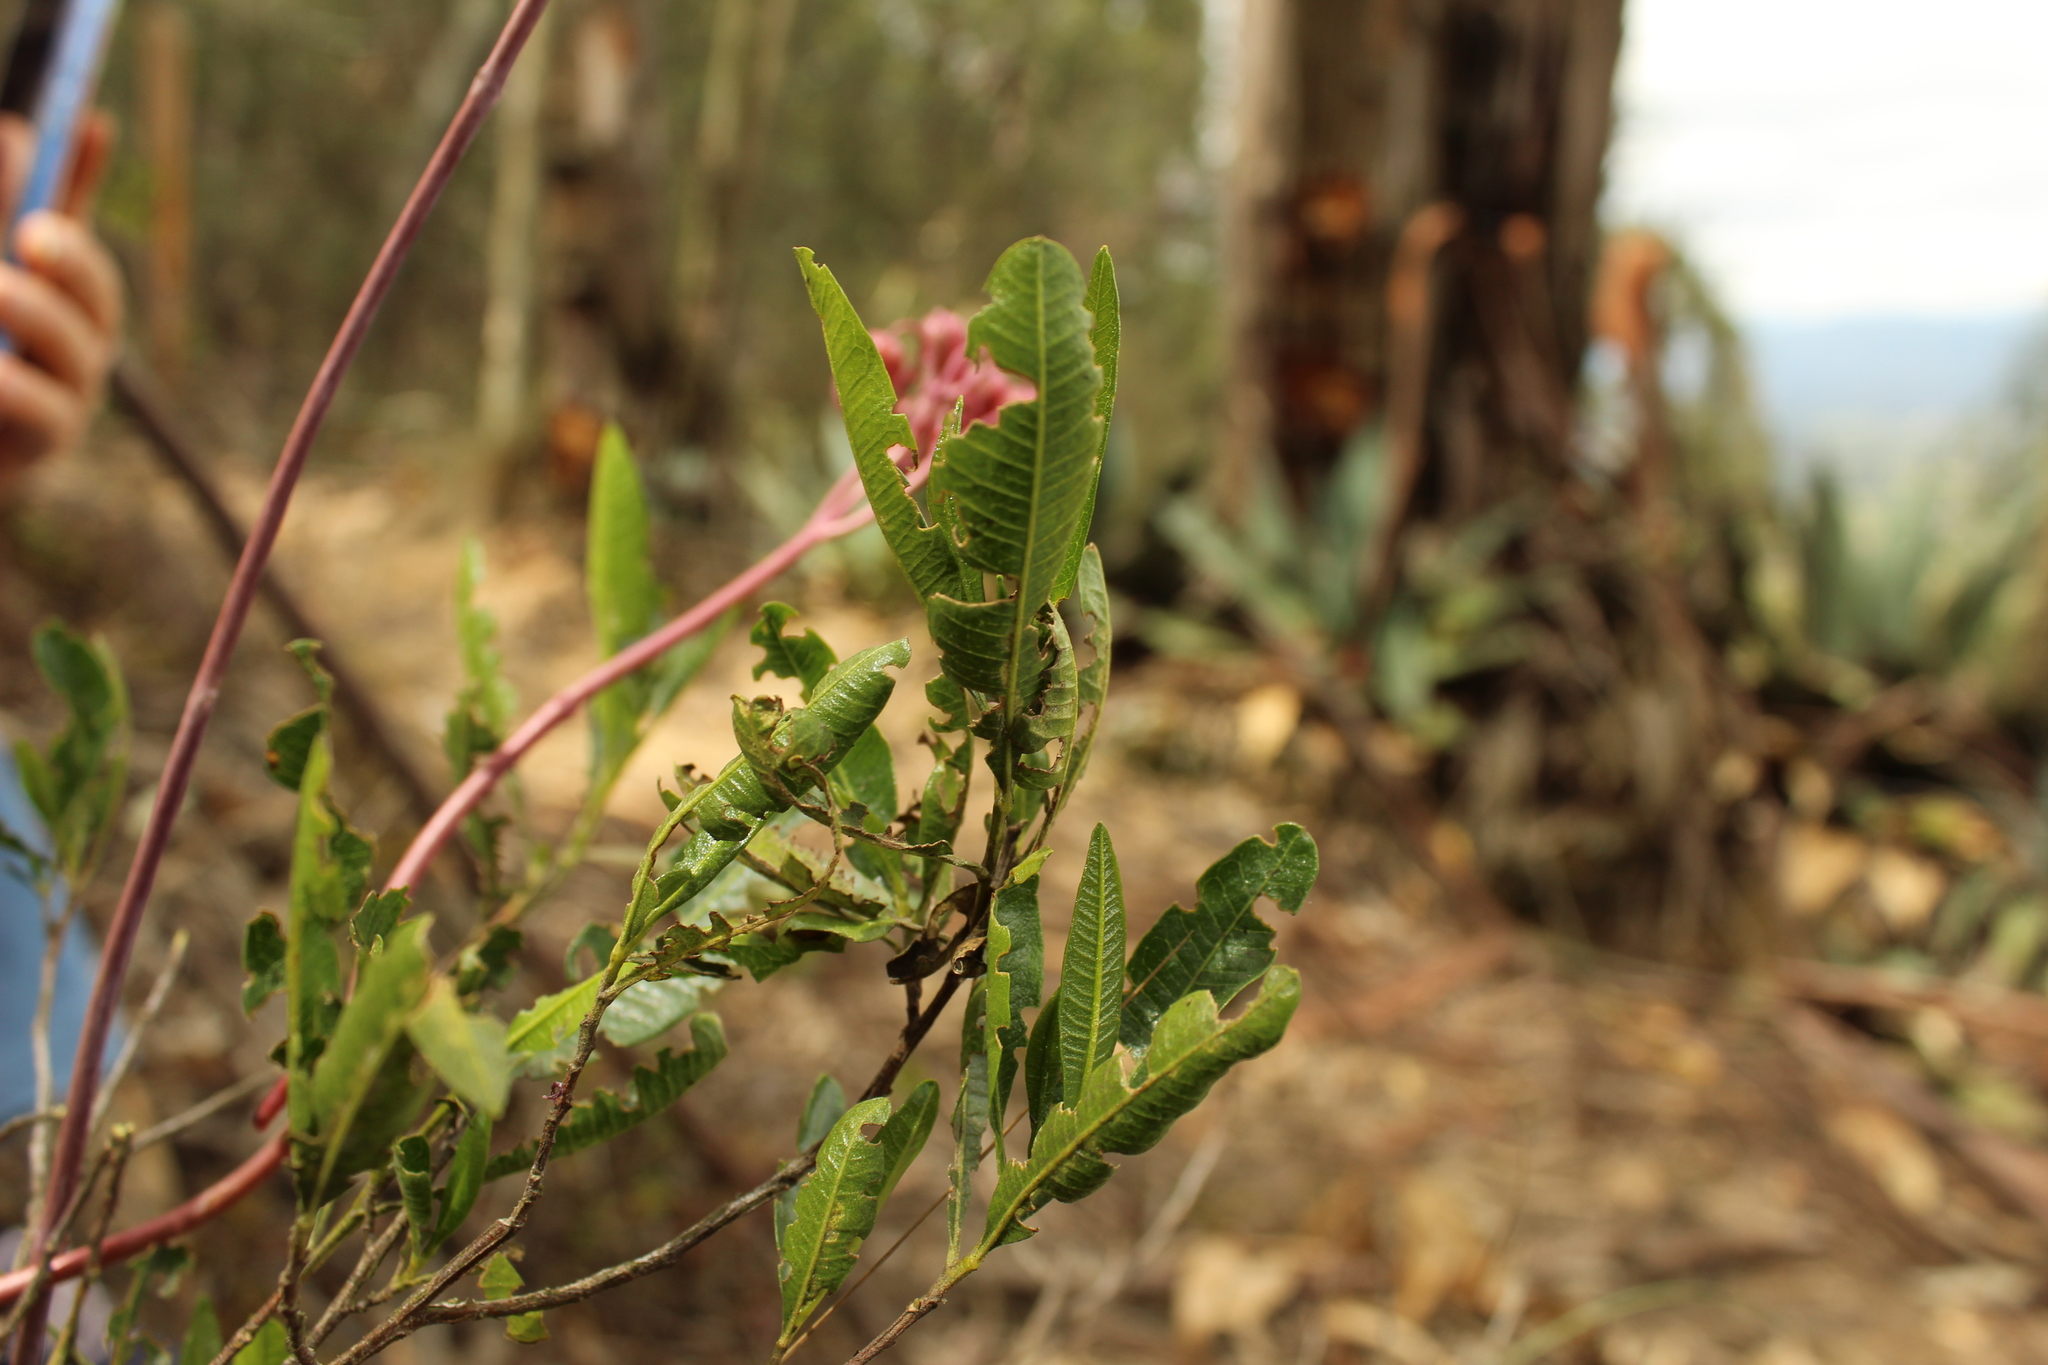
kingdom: Plantae
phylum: Tracheophyta
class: Magnoliopsida
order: Sapindales
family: Sapindaceae
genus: Dodonaea
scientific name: Dodonaea viscosa
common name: Hopbush
